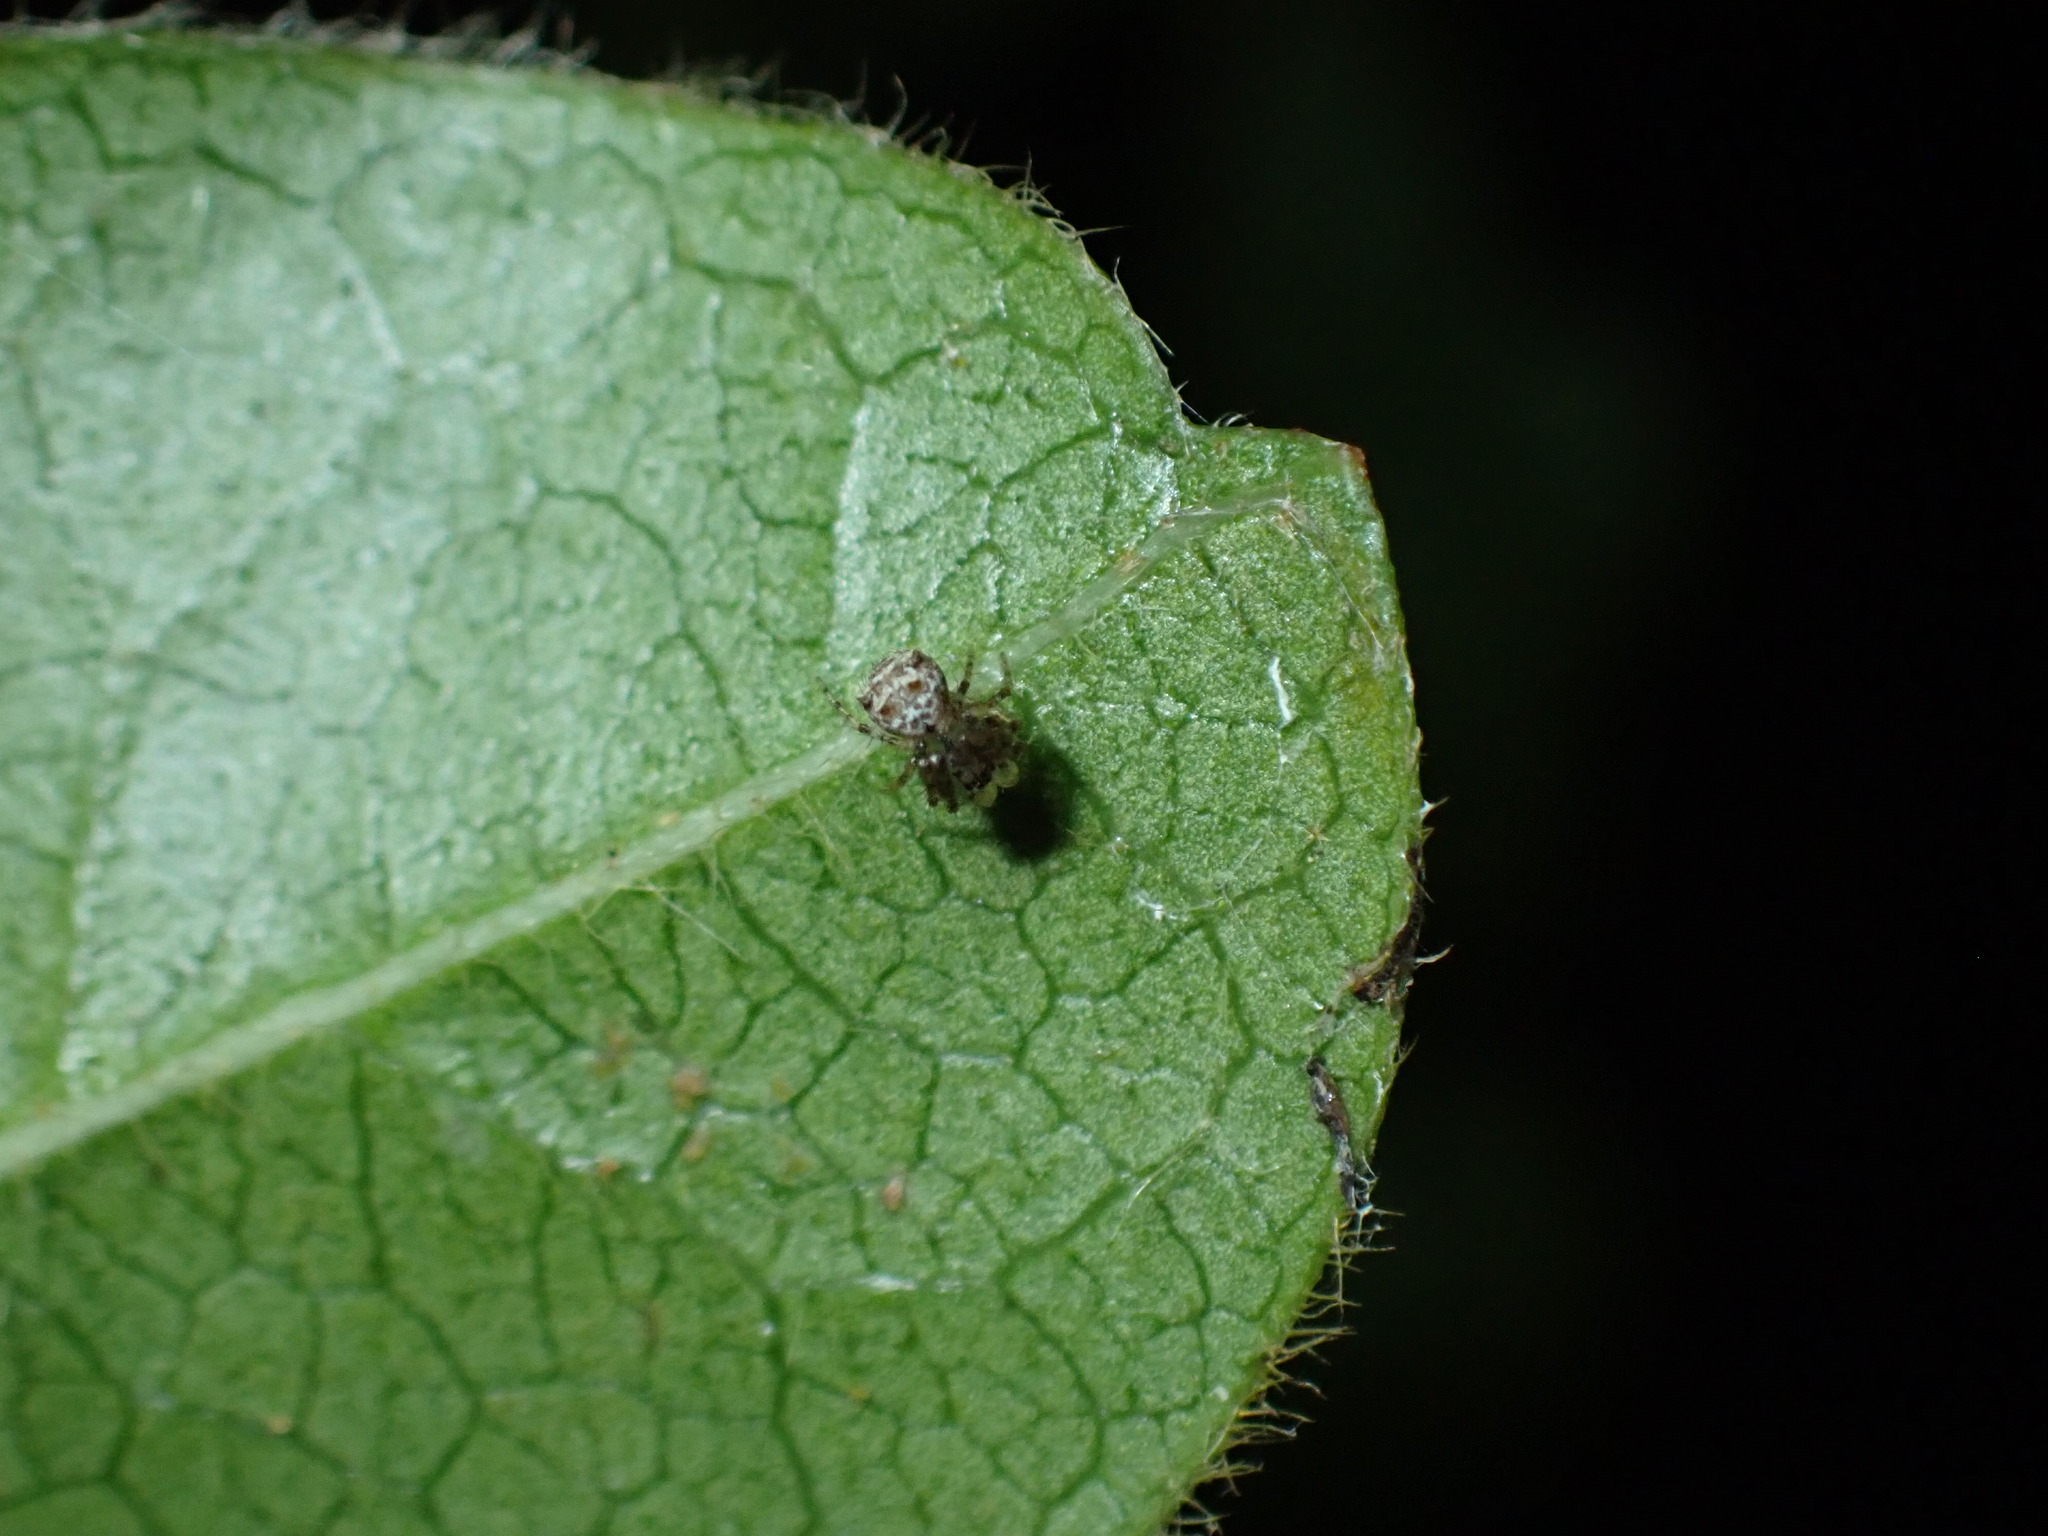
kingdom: Animalia
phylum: Arthropoda
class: Arachnida
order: Araneae
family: Mimetidae
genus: Ero
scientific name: Ero aphana
